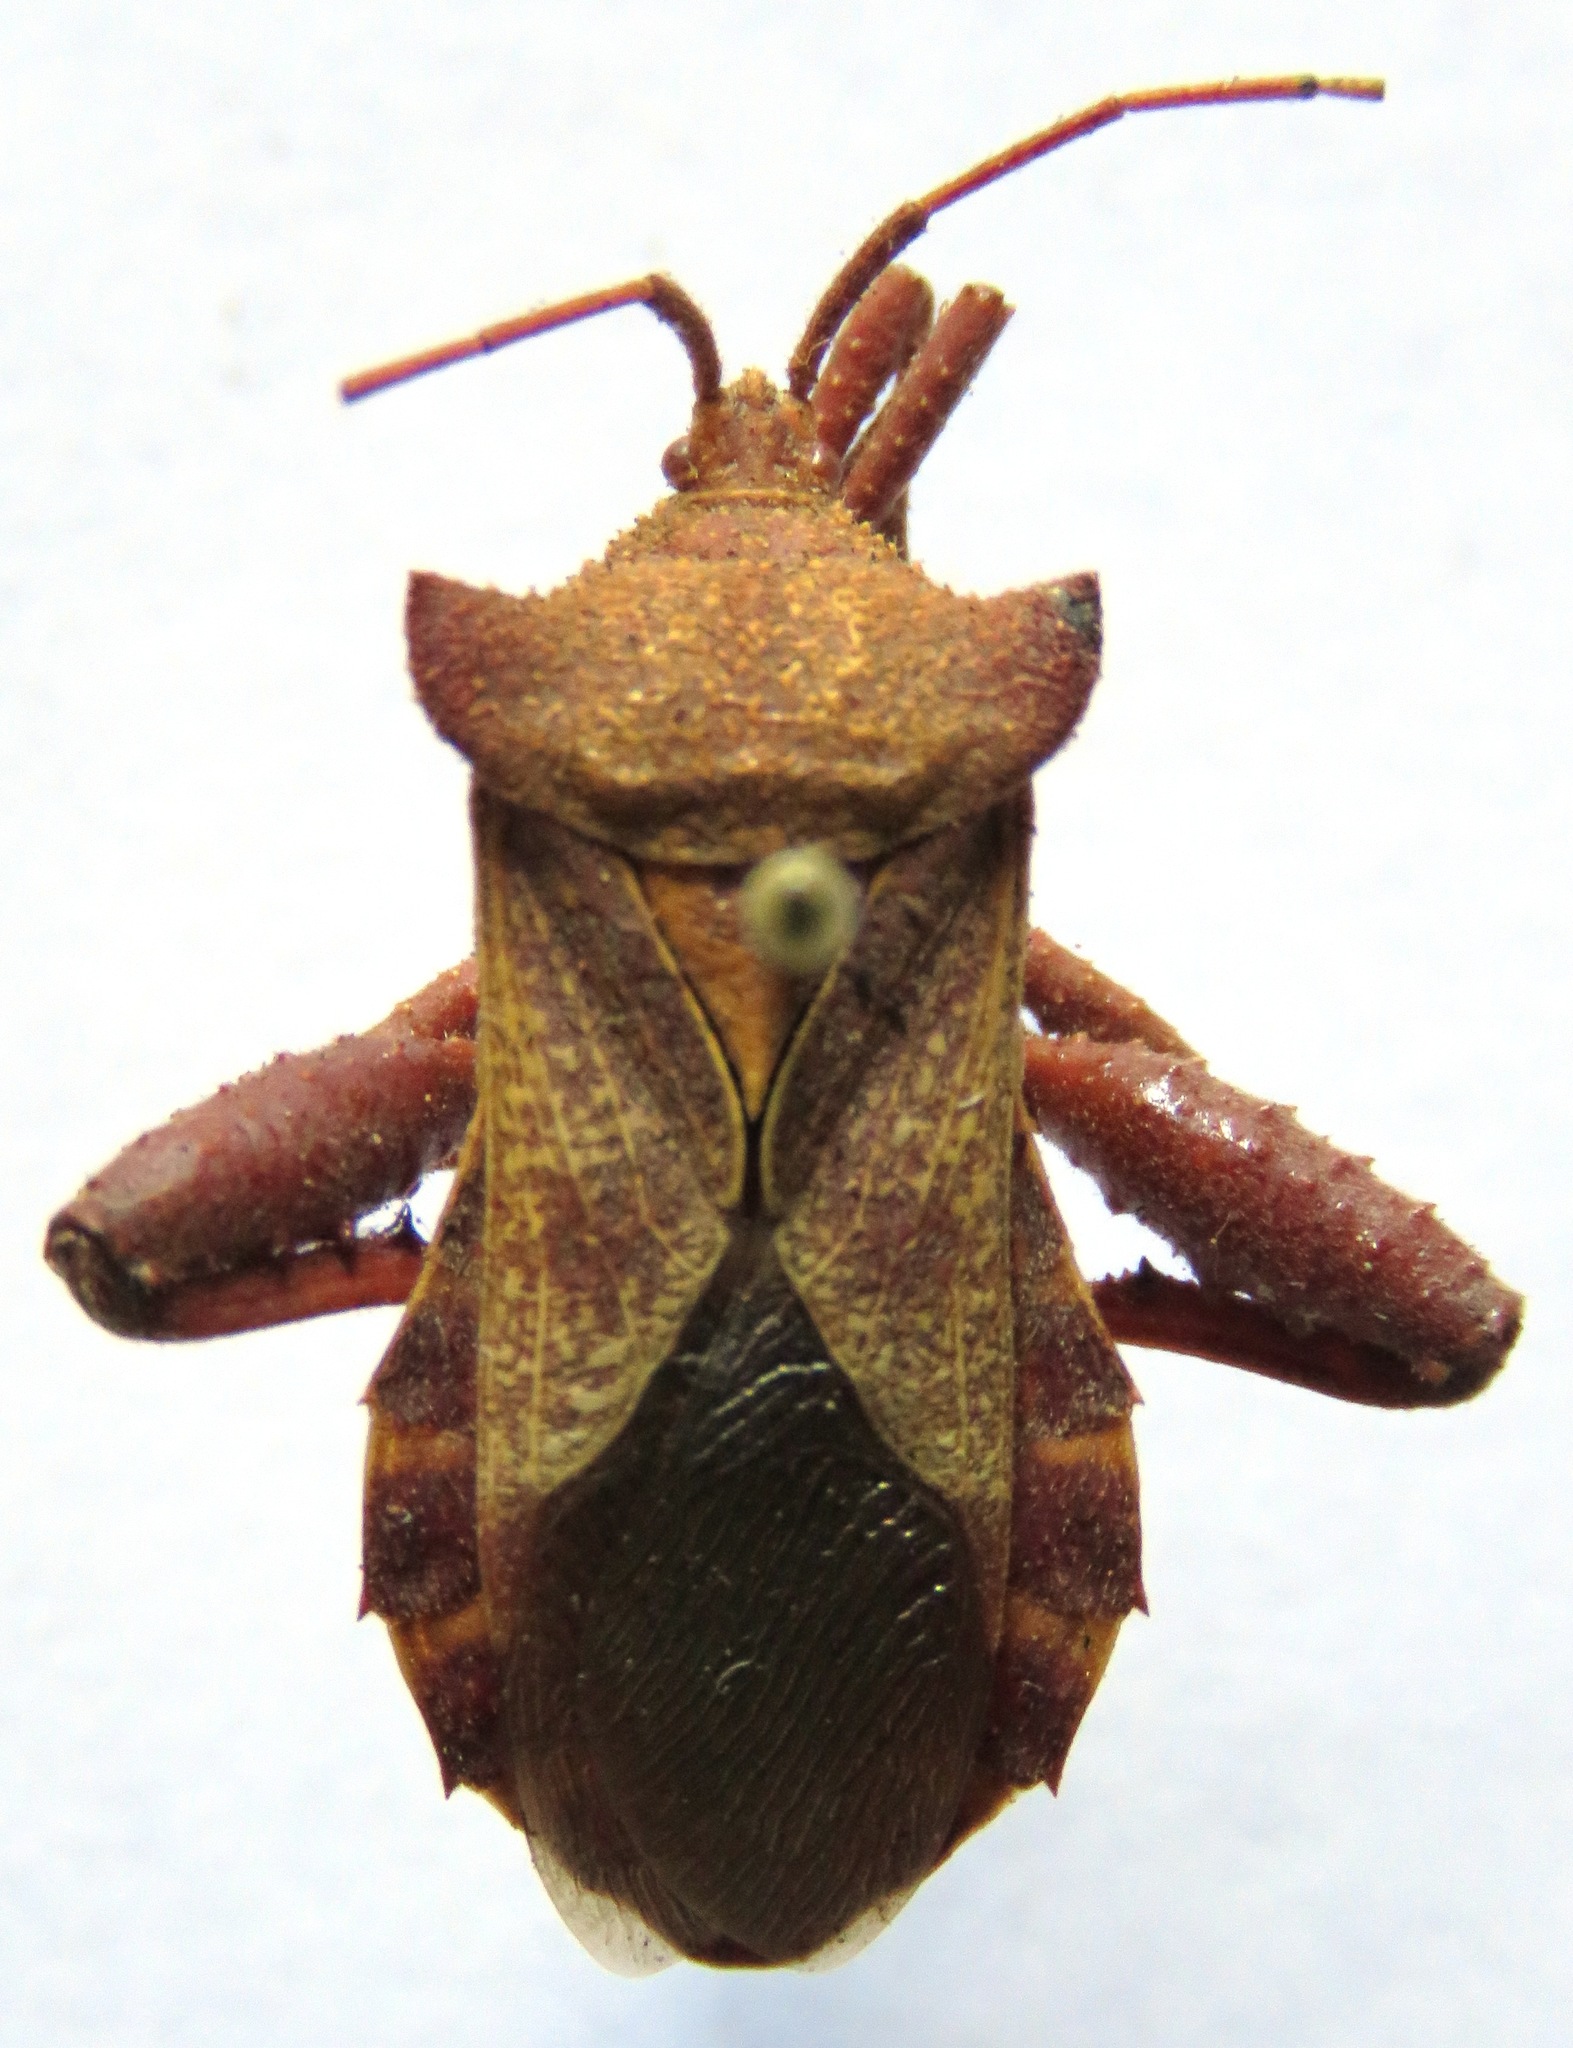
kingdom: Animalia
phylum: Arthropoda
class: Insecta
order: Hemiptera
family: Coreidae
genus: Mozena
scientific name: Mozena tyttha
